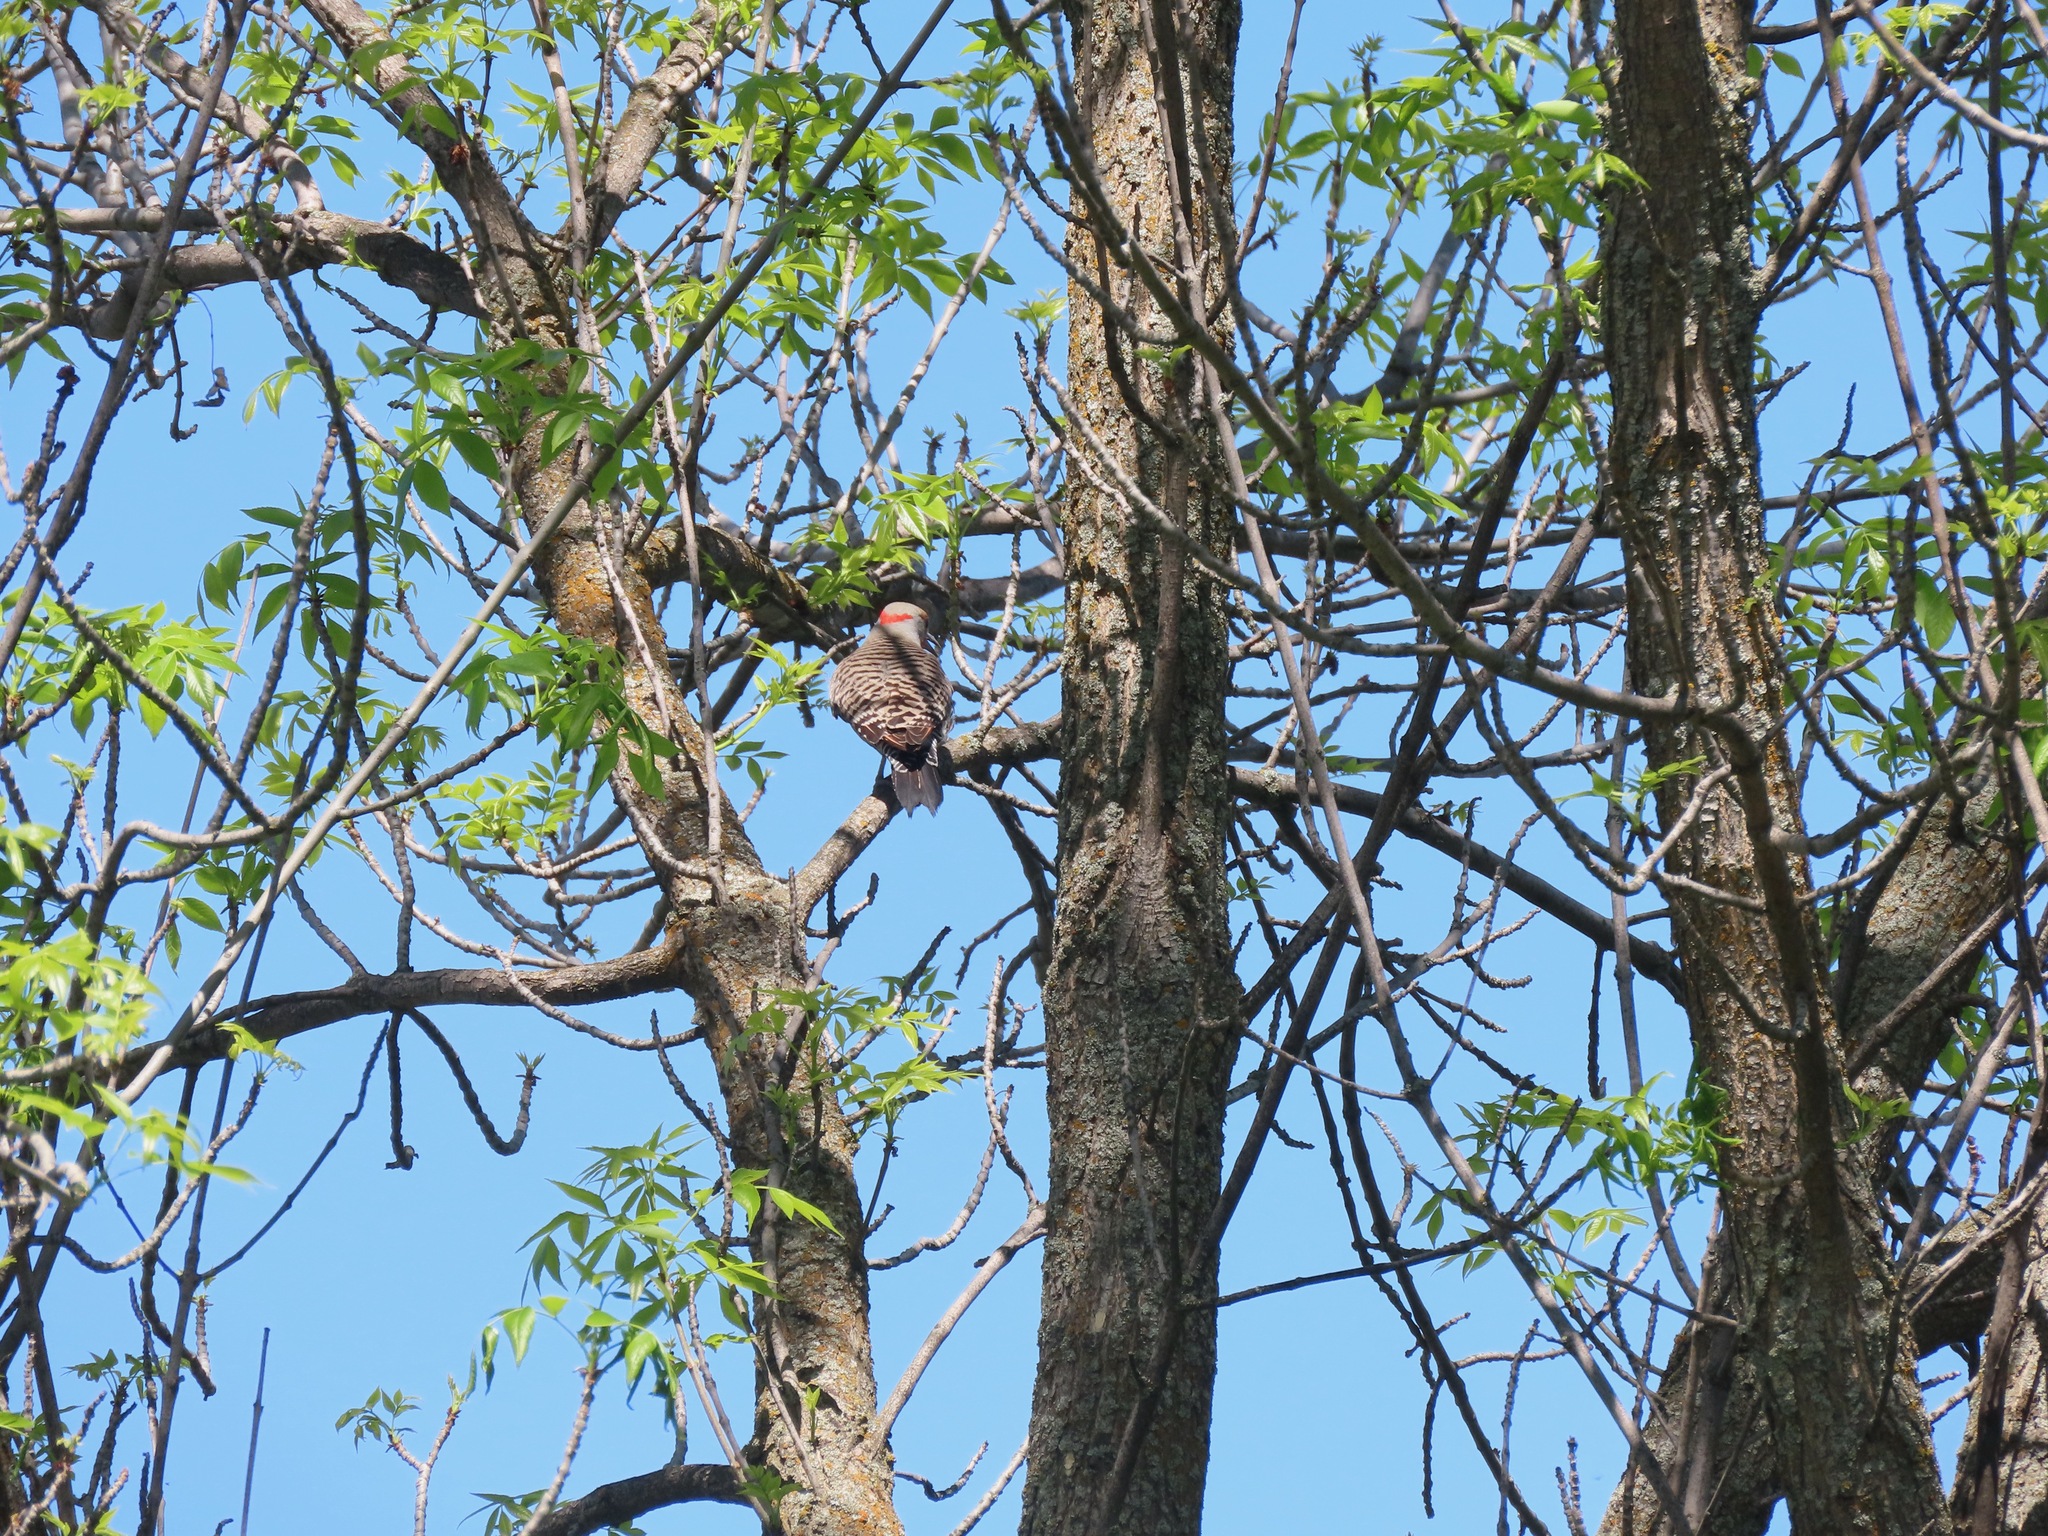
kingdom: Animalia
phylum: Chordata
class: Aves
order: Piciformes
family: Picidae
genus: Colaptes
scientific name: Colaptes auratus
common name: Northern flicker
